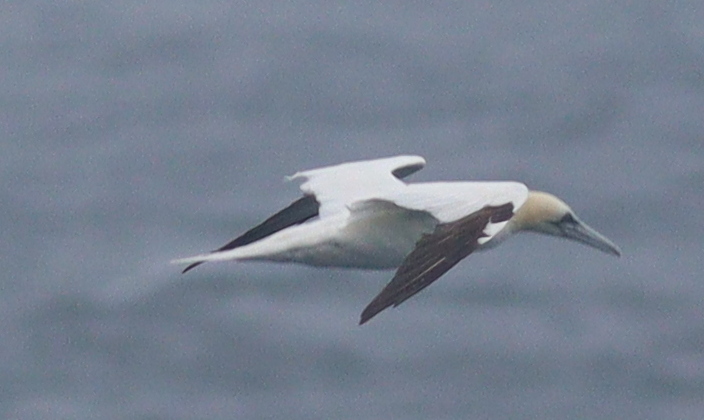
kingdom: Animalia
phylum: Chordata
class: Aves
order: Suliformes
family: Sulidae
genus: Morus
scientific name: Morus bassanus
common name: Northern gannet
